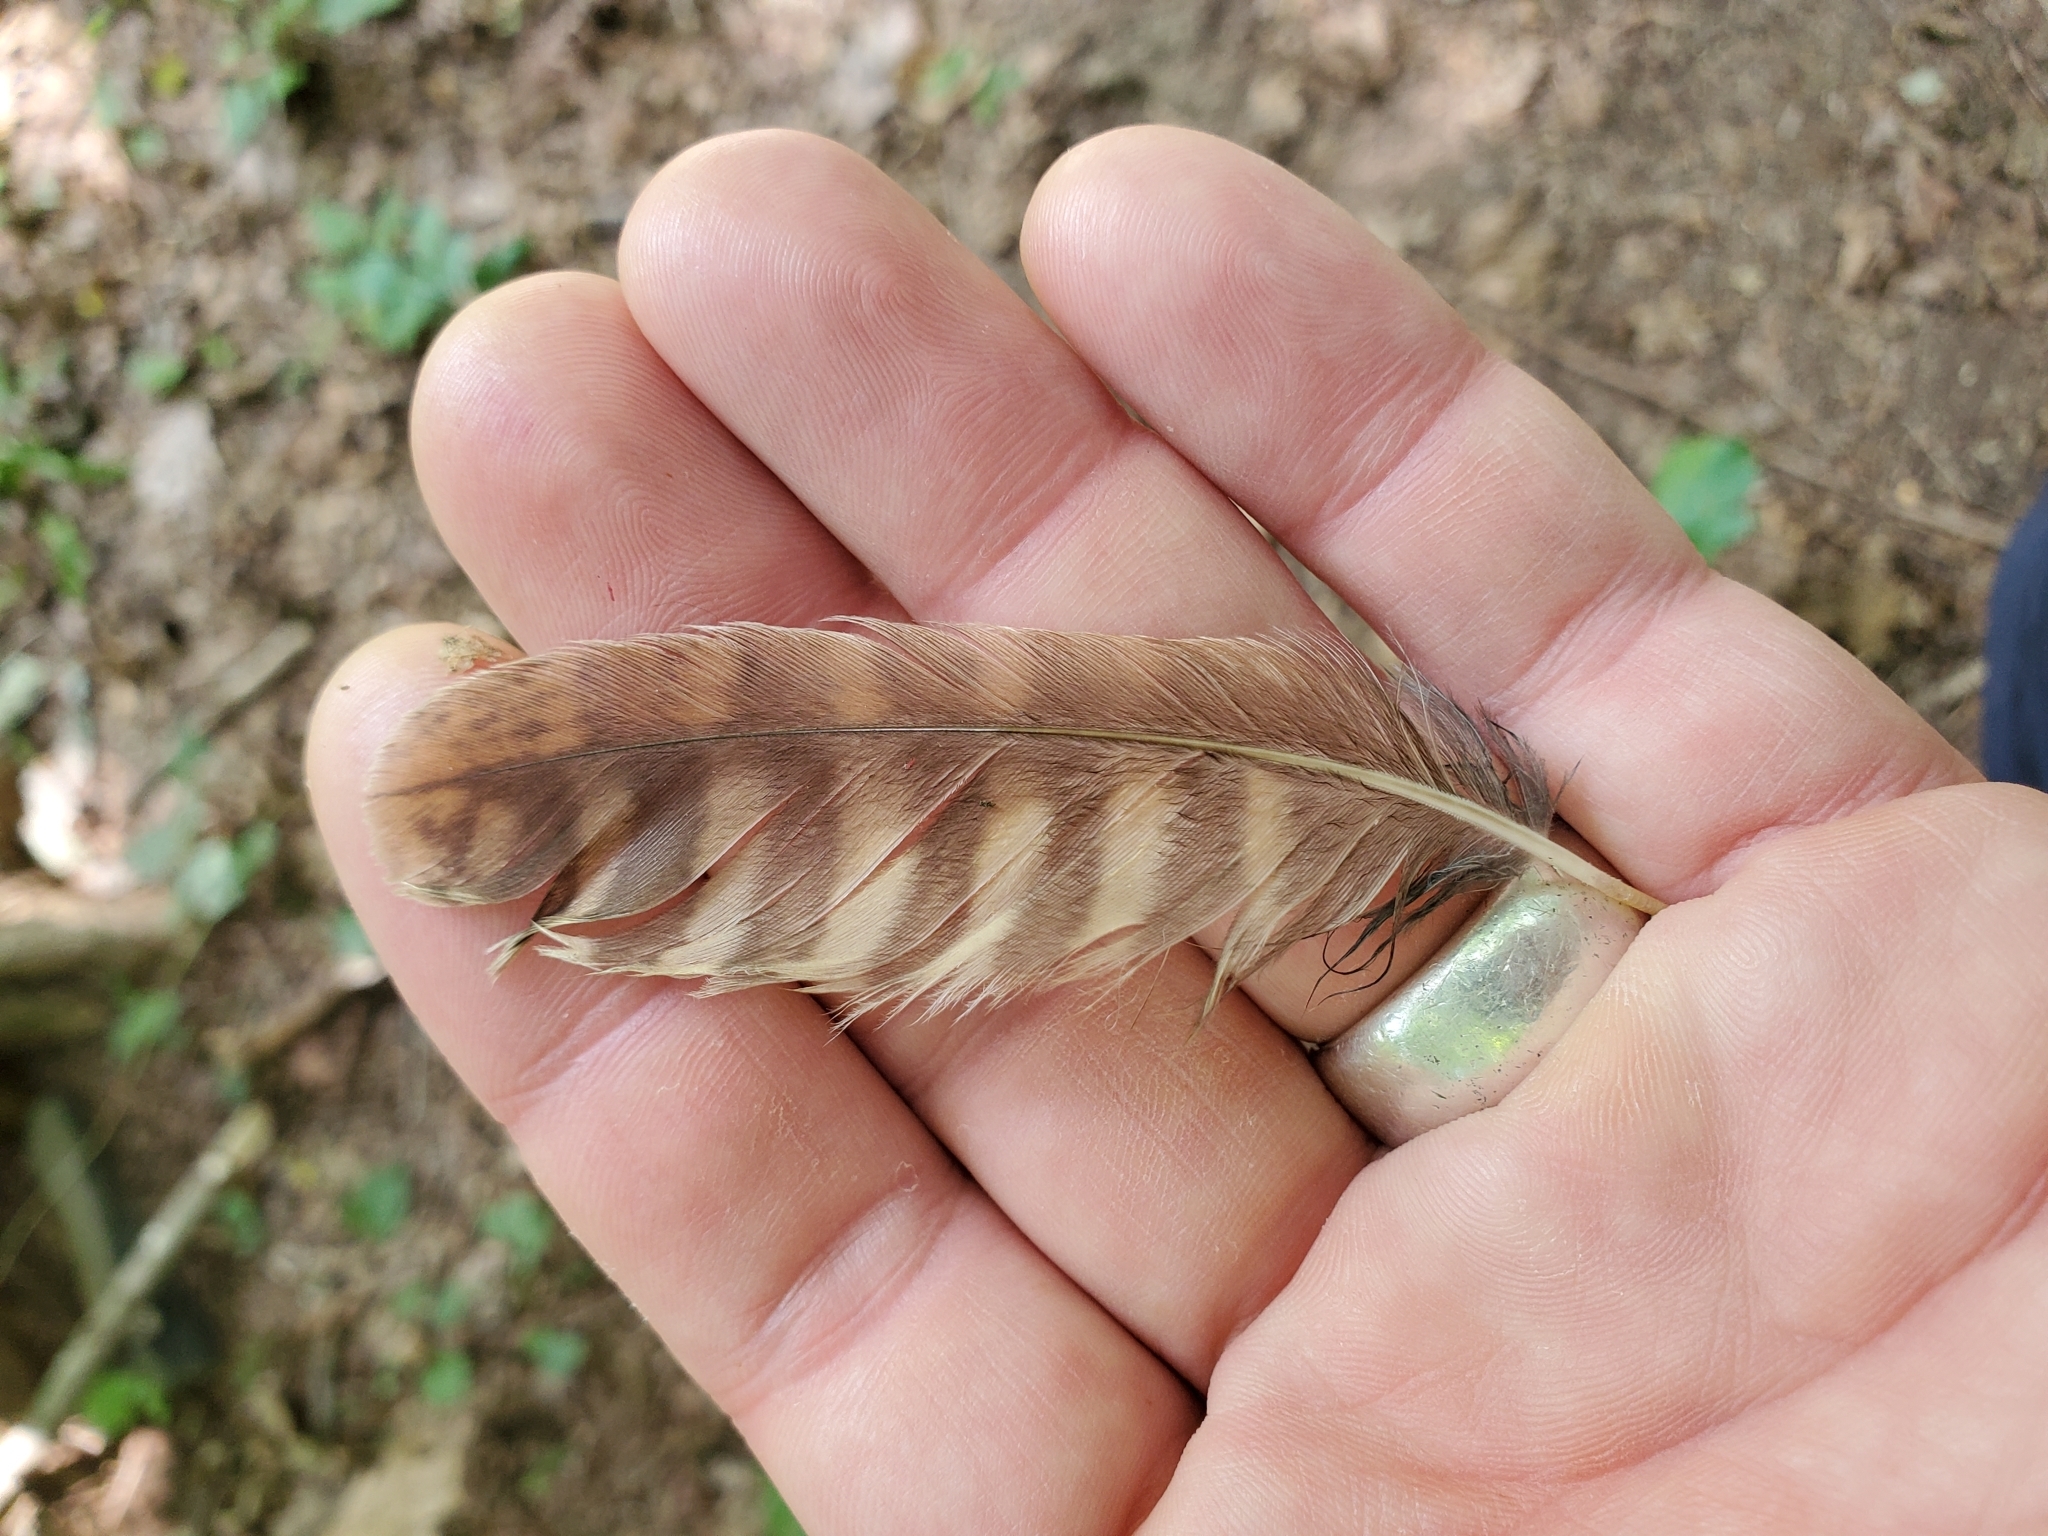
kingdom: Animalia
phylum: Chordata
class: Aves
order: Strigiformes
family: Strigidae
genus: Megascops
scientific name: Megascops asio
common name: Eastern screech-owl
